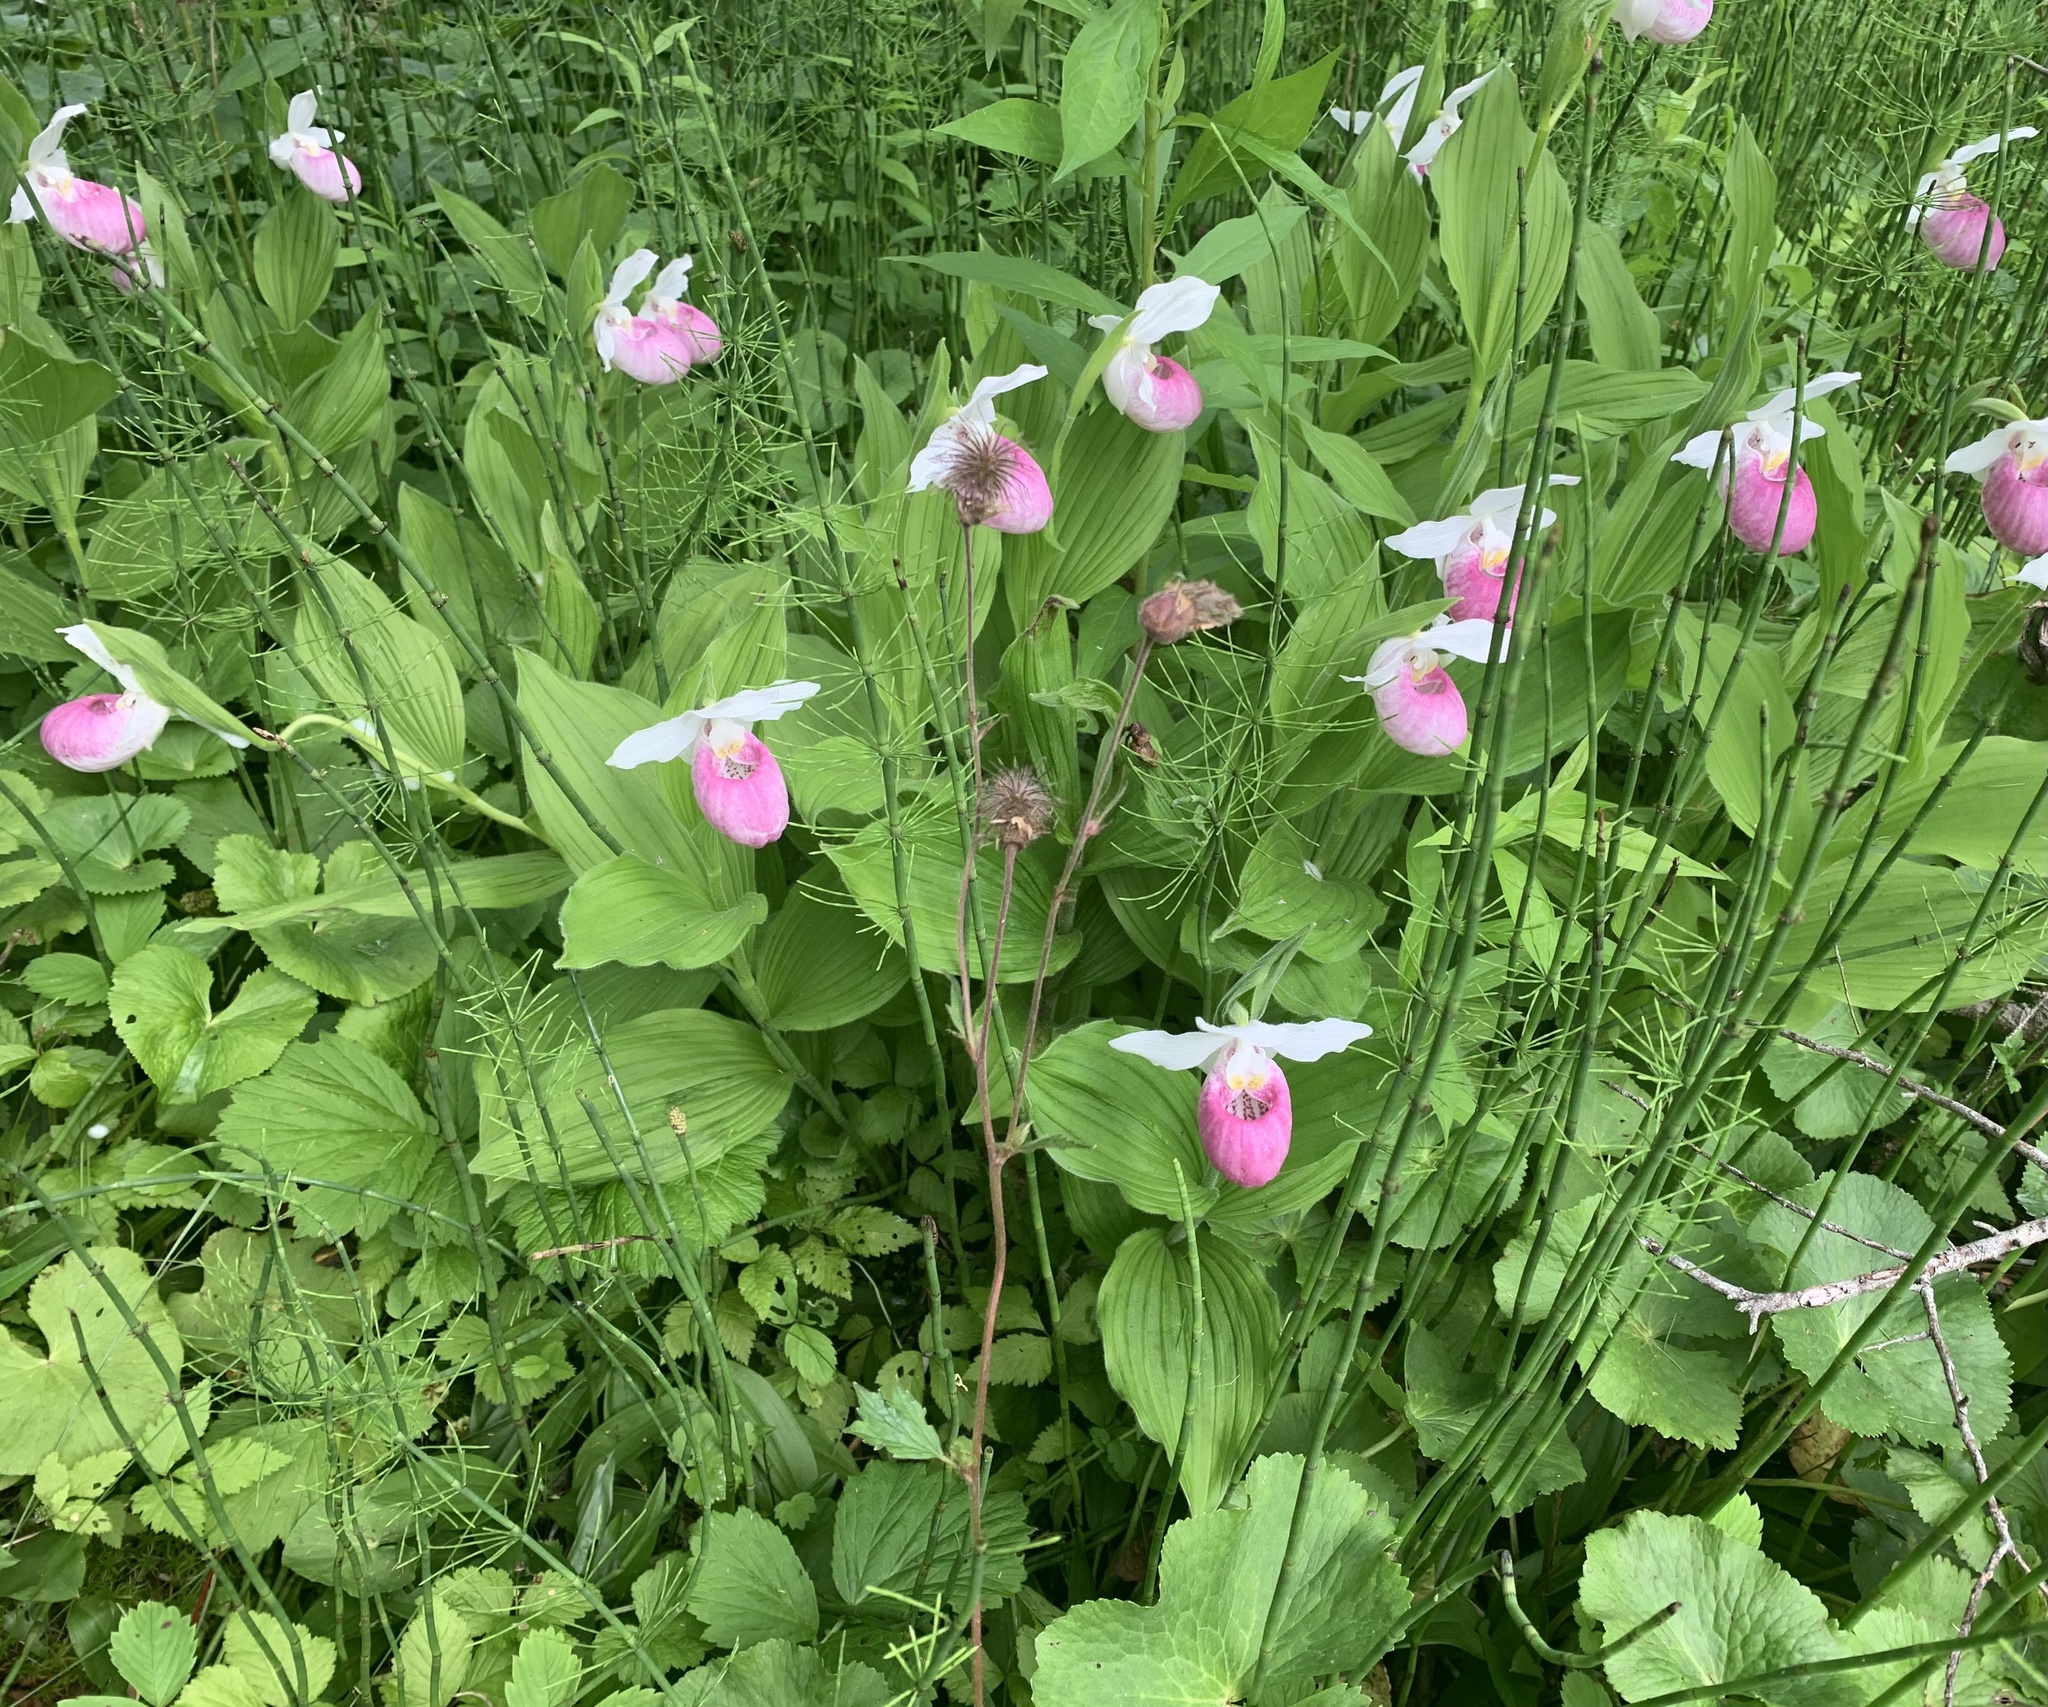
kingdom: Plantae
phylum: Tracheophyta
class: Liliopsida
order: Asparagales
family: Orchidaceae
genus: Cypripedium
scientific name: Cypripedium reginae
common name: Queen lady's-slipper
